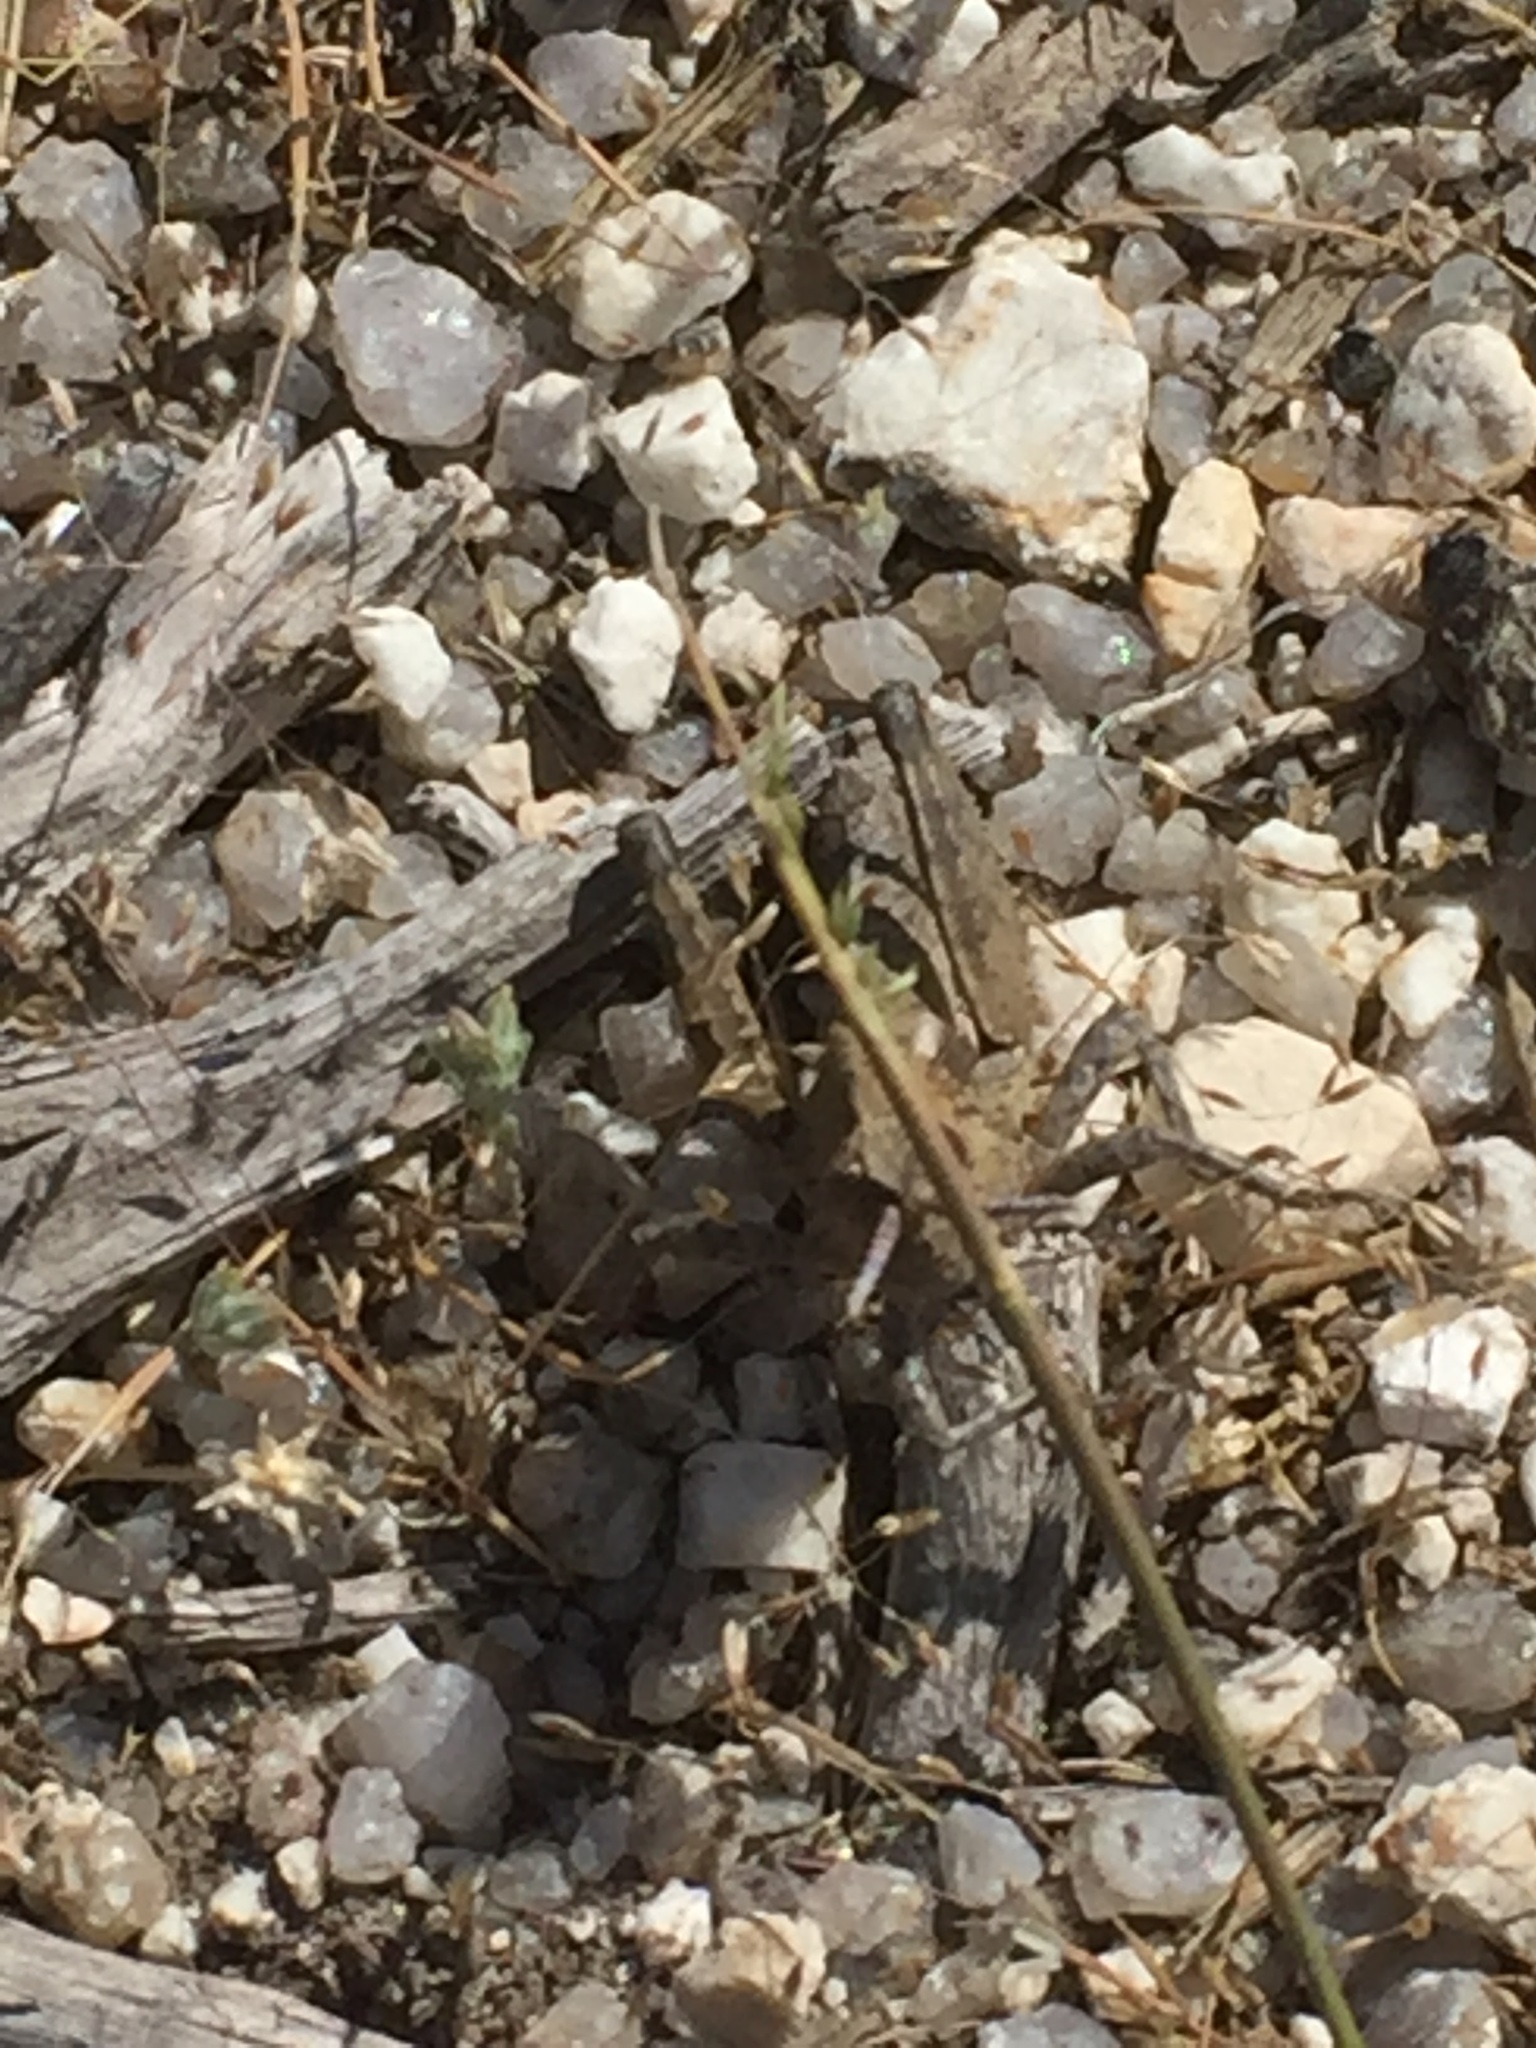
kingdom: Animalia
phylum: Arthropoda
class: Insecta
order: Orthoptera
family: Pamphagidae
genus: Eumigus
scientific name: Eumigus ayresi
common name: Ayres' stone grasshopper
